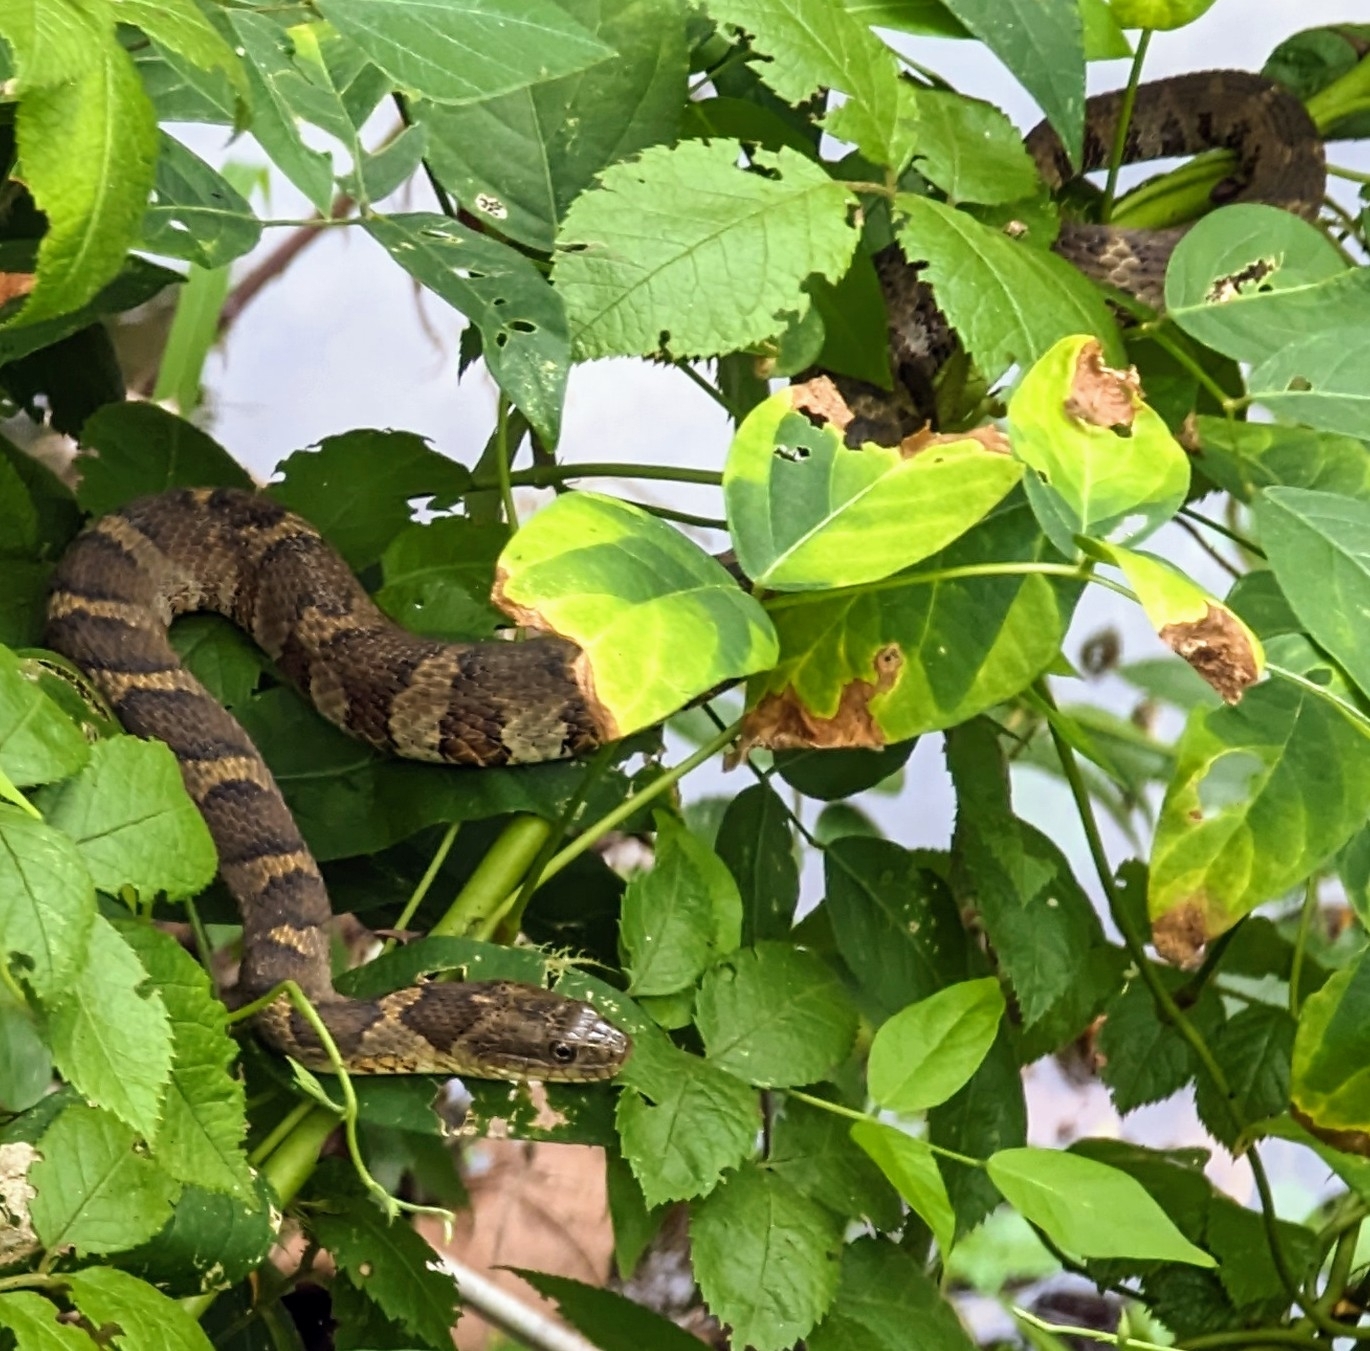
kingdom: Animalia
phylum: Chordata
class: Squamata
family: Colubridae
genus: Nerodia
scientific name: Nerodia sipedon
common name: Northern water snake
